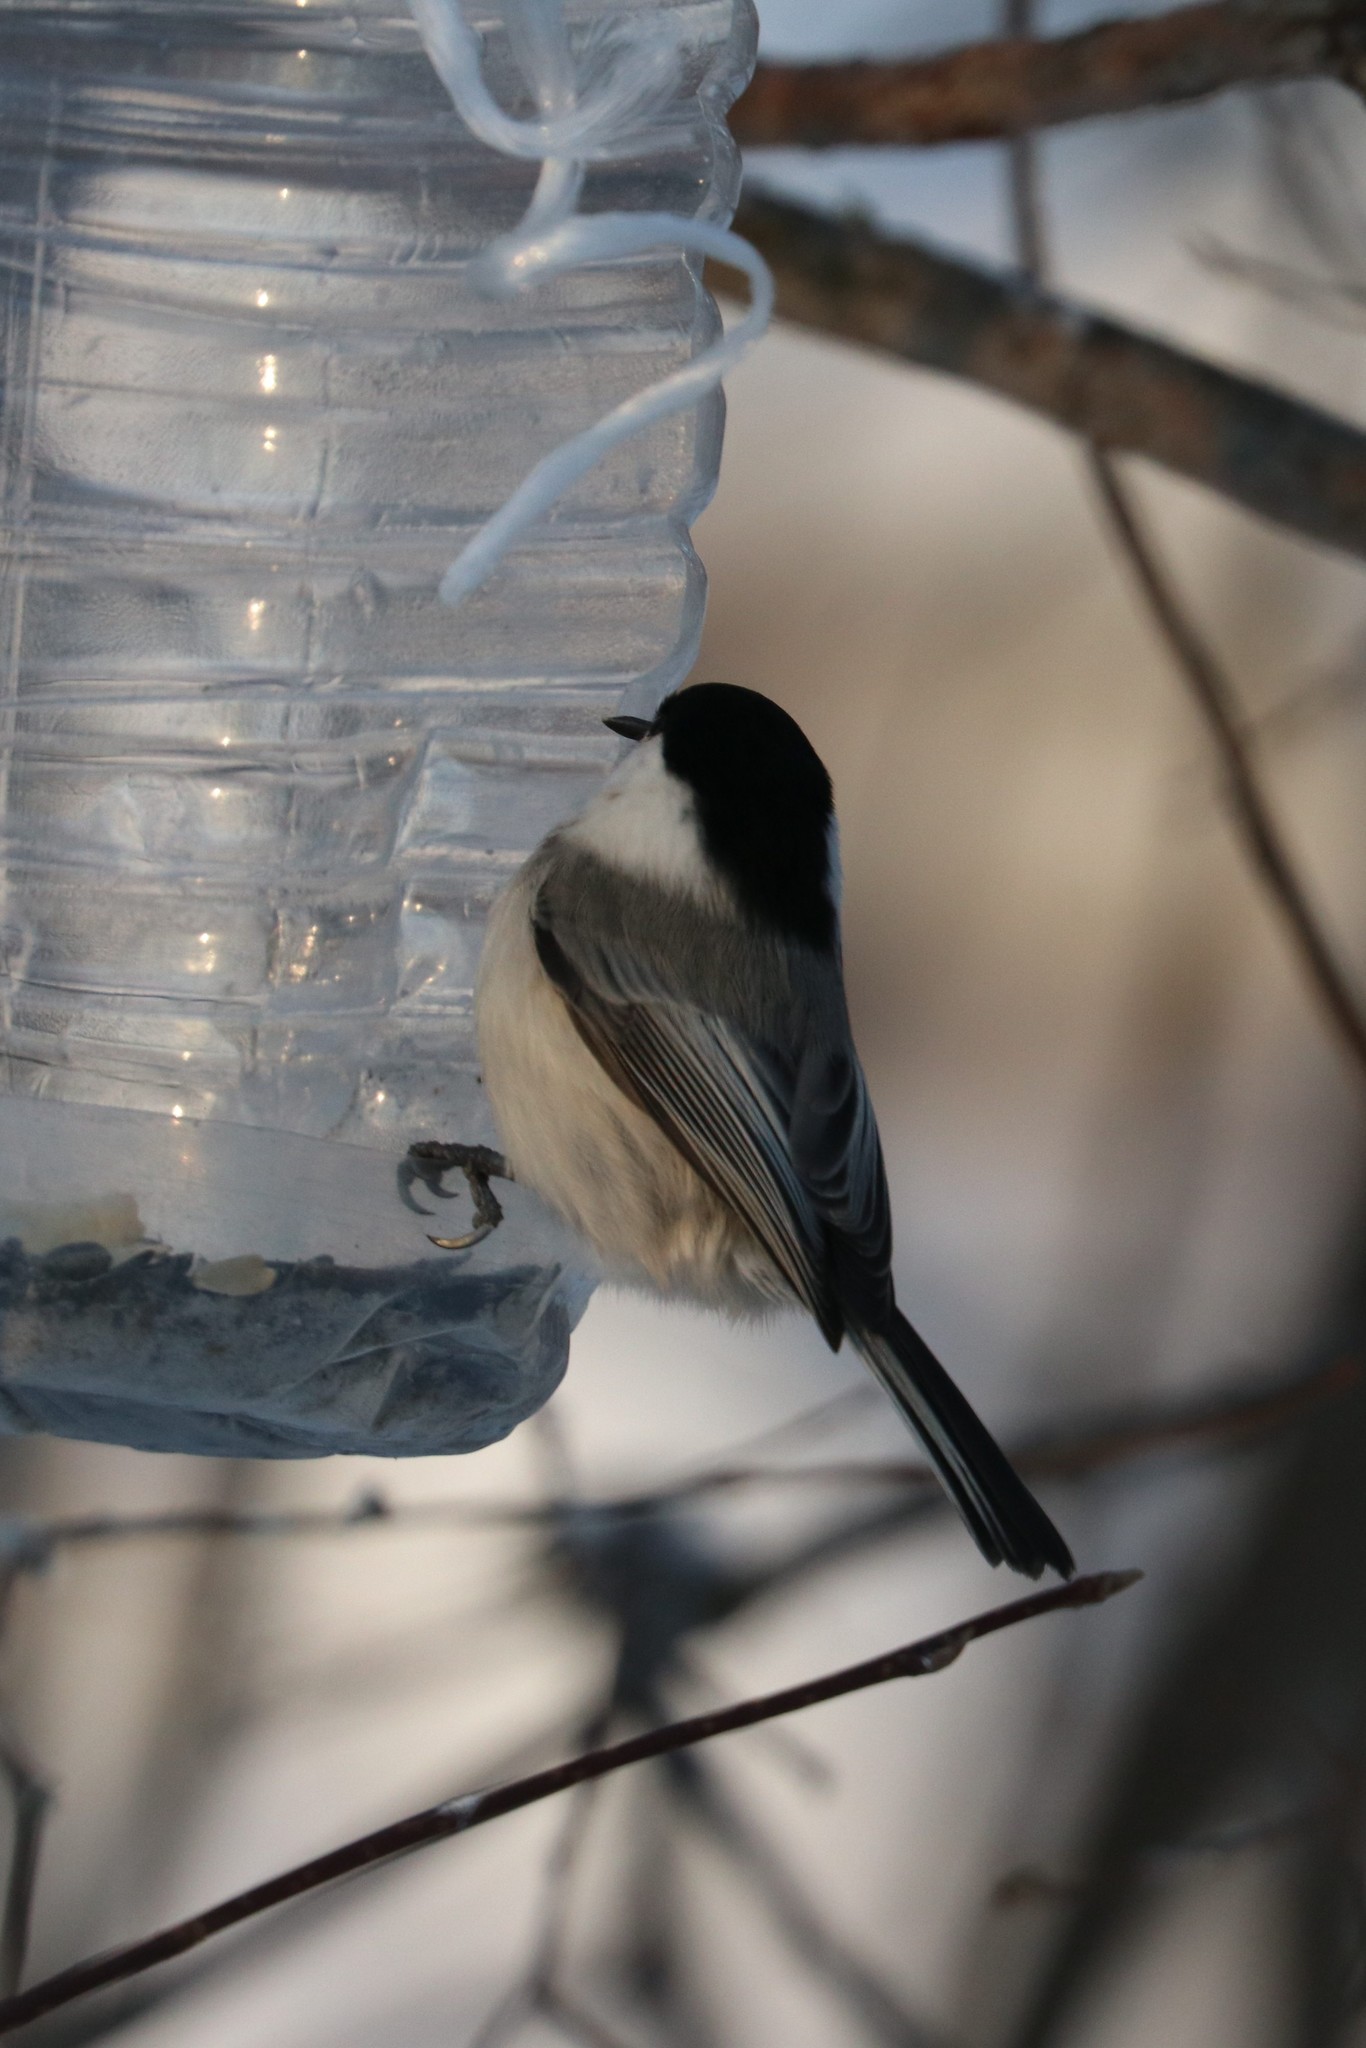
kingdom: Animalia
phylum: Chordata
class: Aves
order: Passeriformes
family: Paridae
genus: Poecile
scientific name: Poecile montanus
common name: Willow tit
